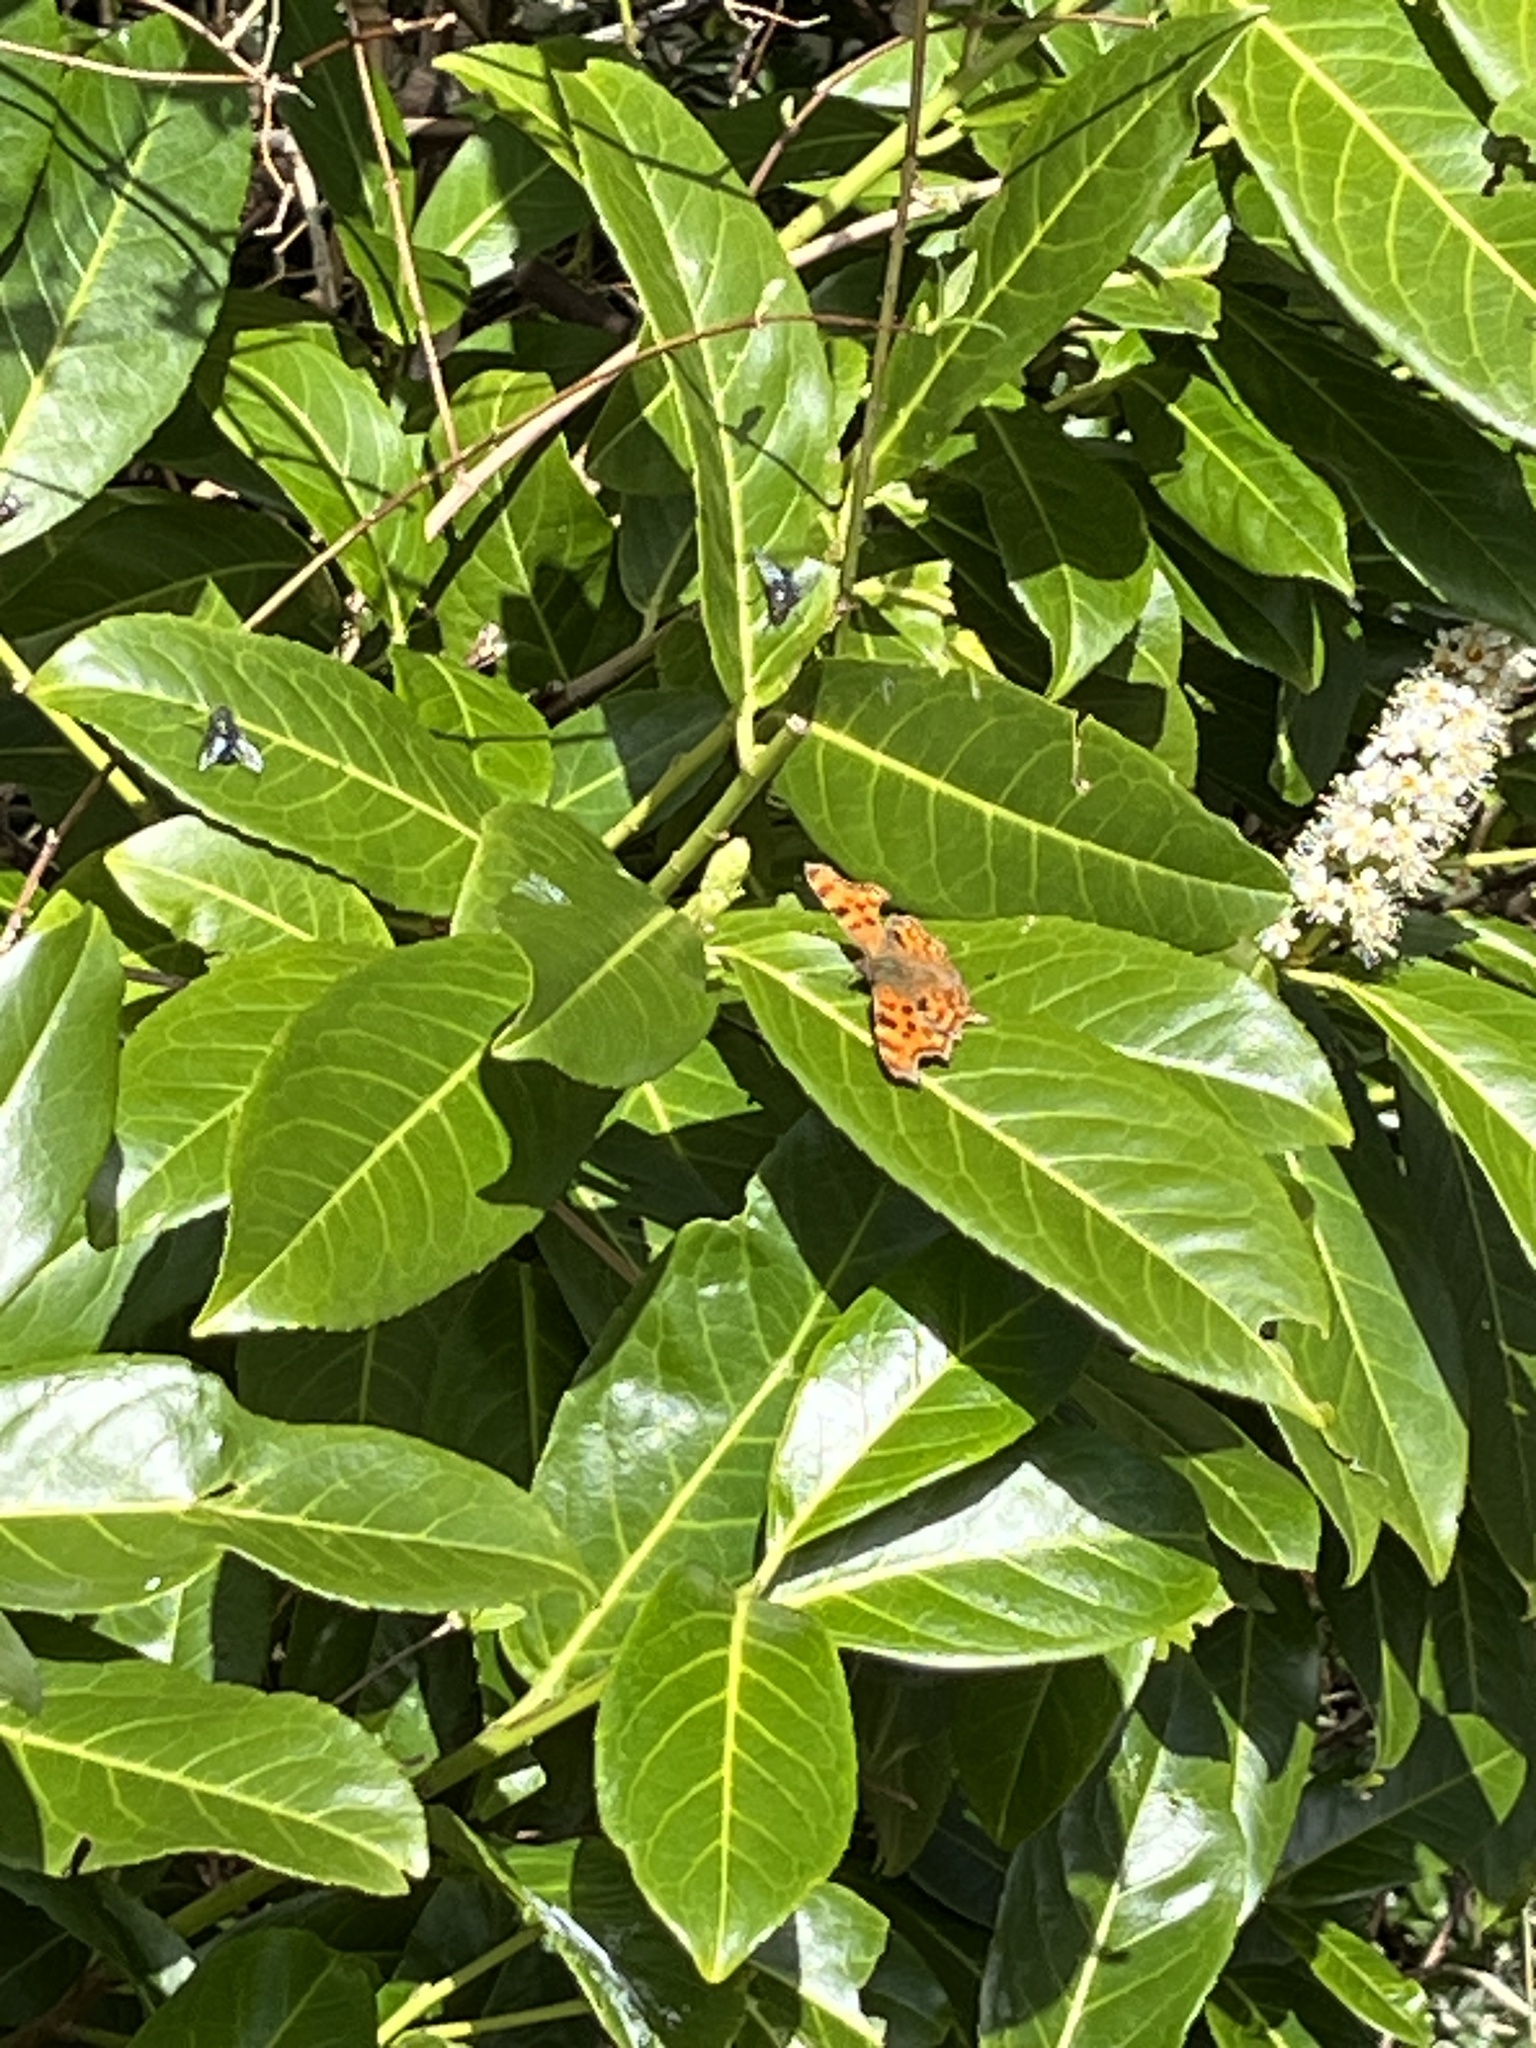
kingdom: Animalia
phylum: Arthropoda
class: Insecta
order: Lepidoptera
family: Nymphalidae
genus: Polygonia
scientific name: Polygonia c-album
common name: Comma
